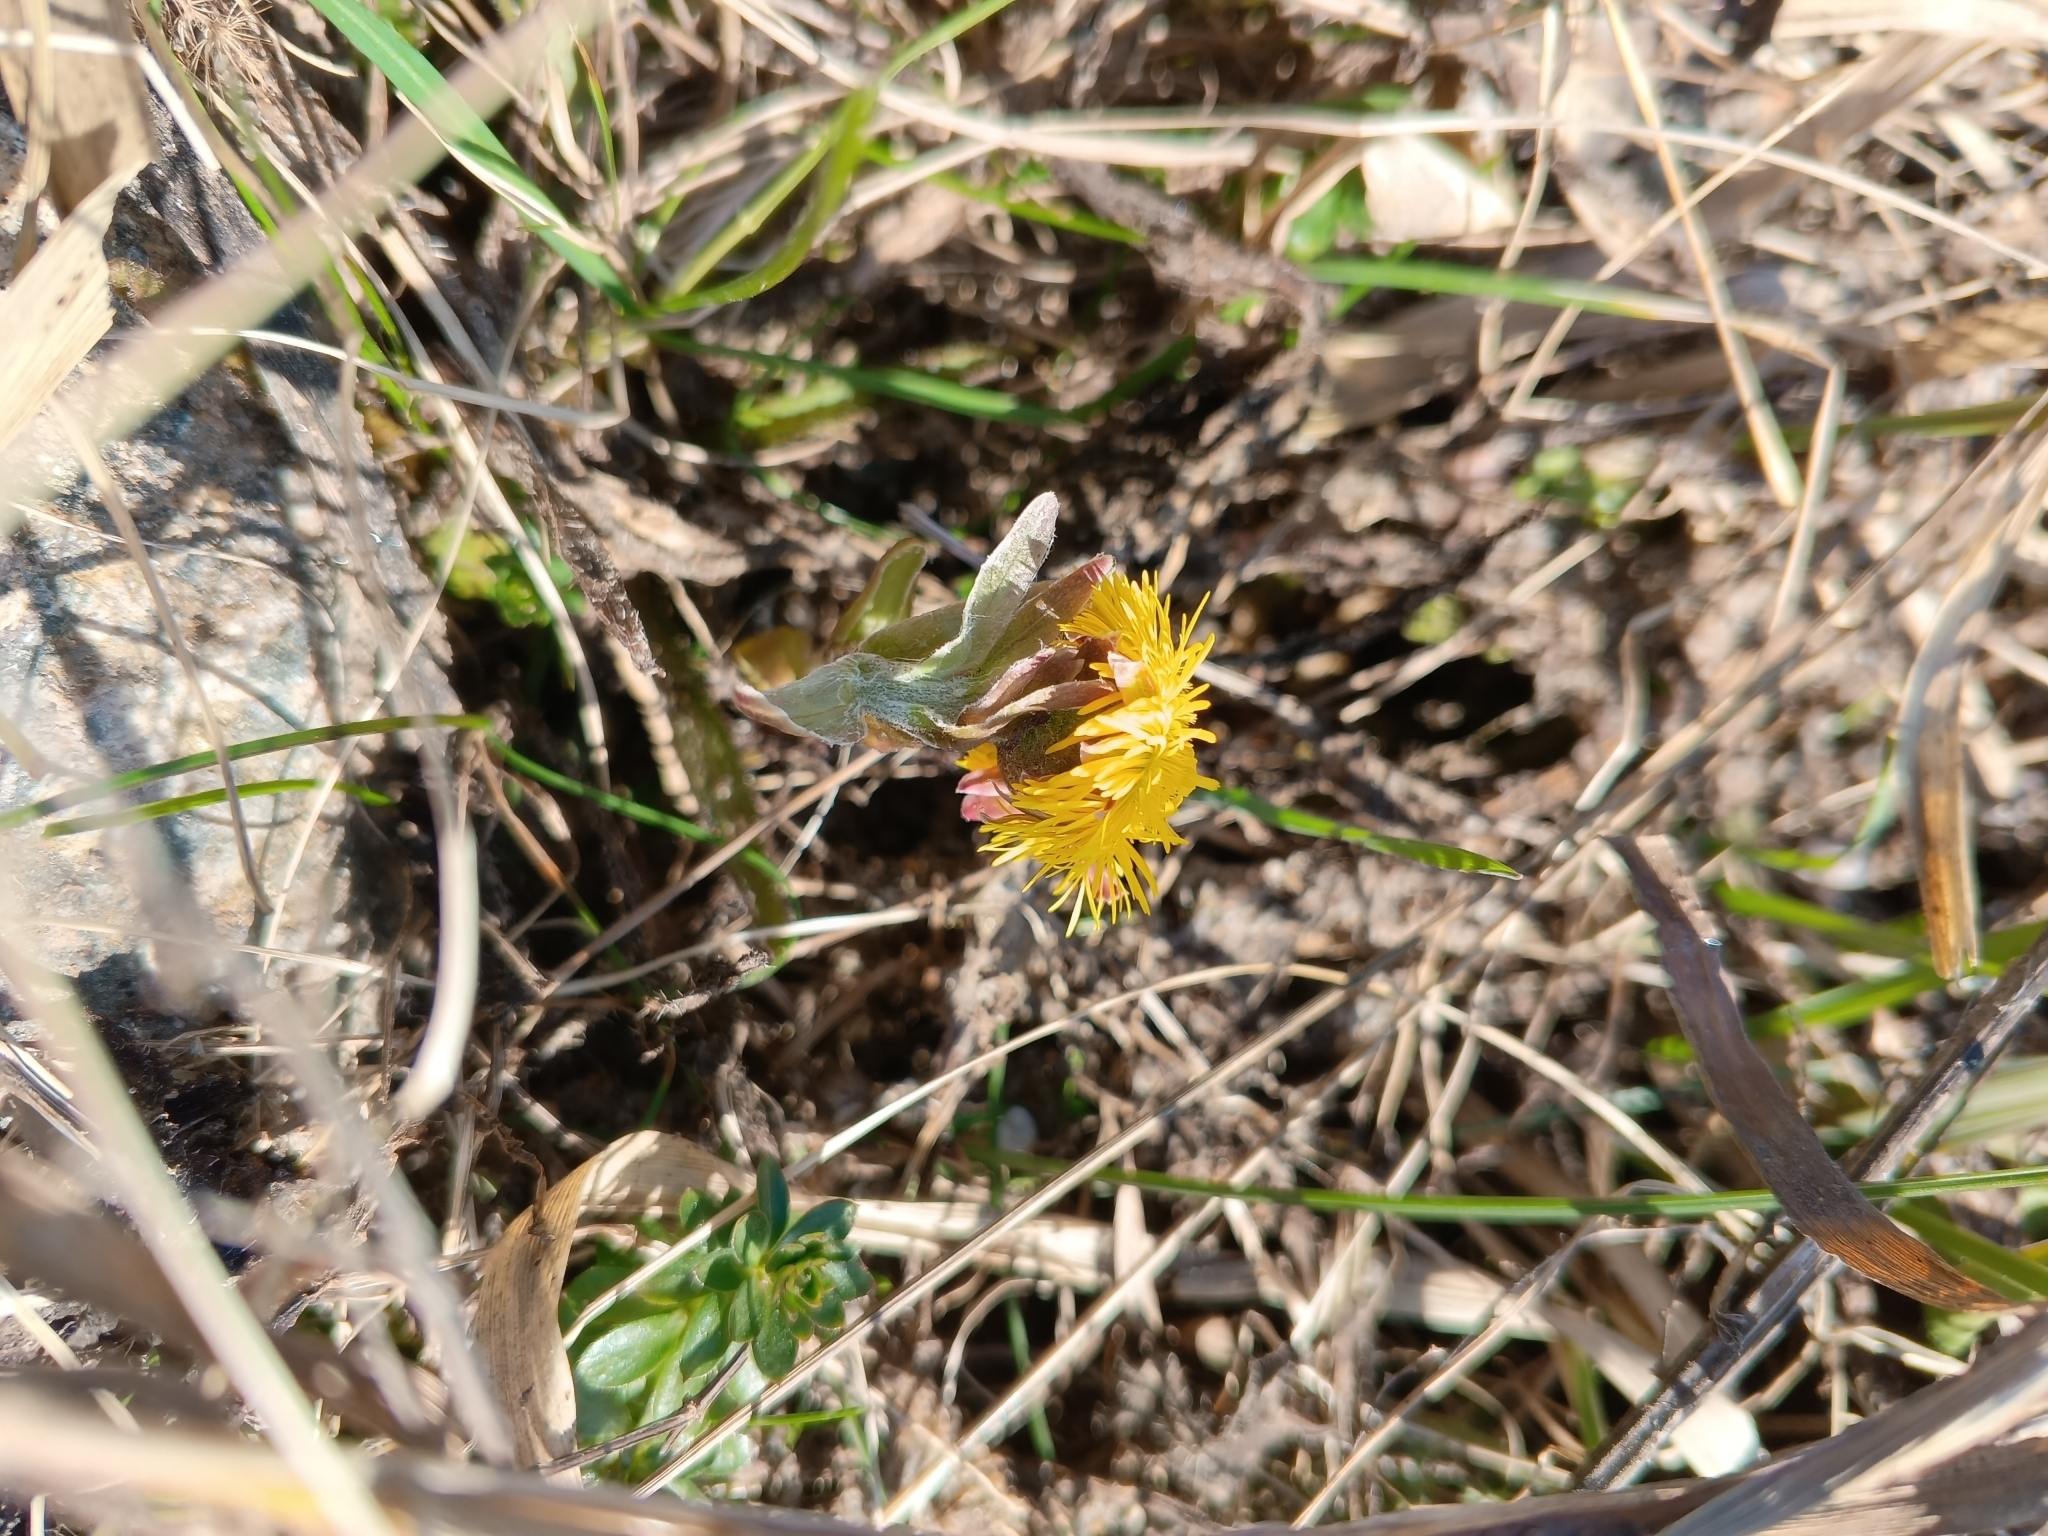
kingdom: Plantae
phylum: Tracheophyta
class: Magnoliopsida
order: Asterales
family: Asteraceae
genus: Tussilago
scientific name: Tussilago farfara
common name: Coltsfoot
